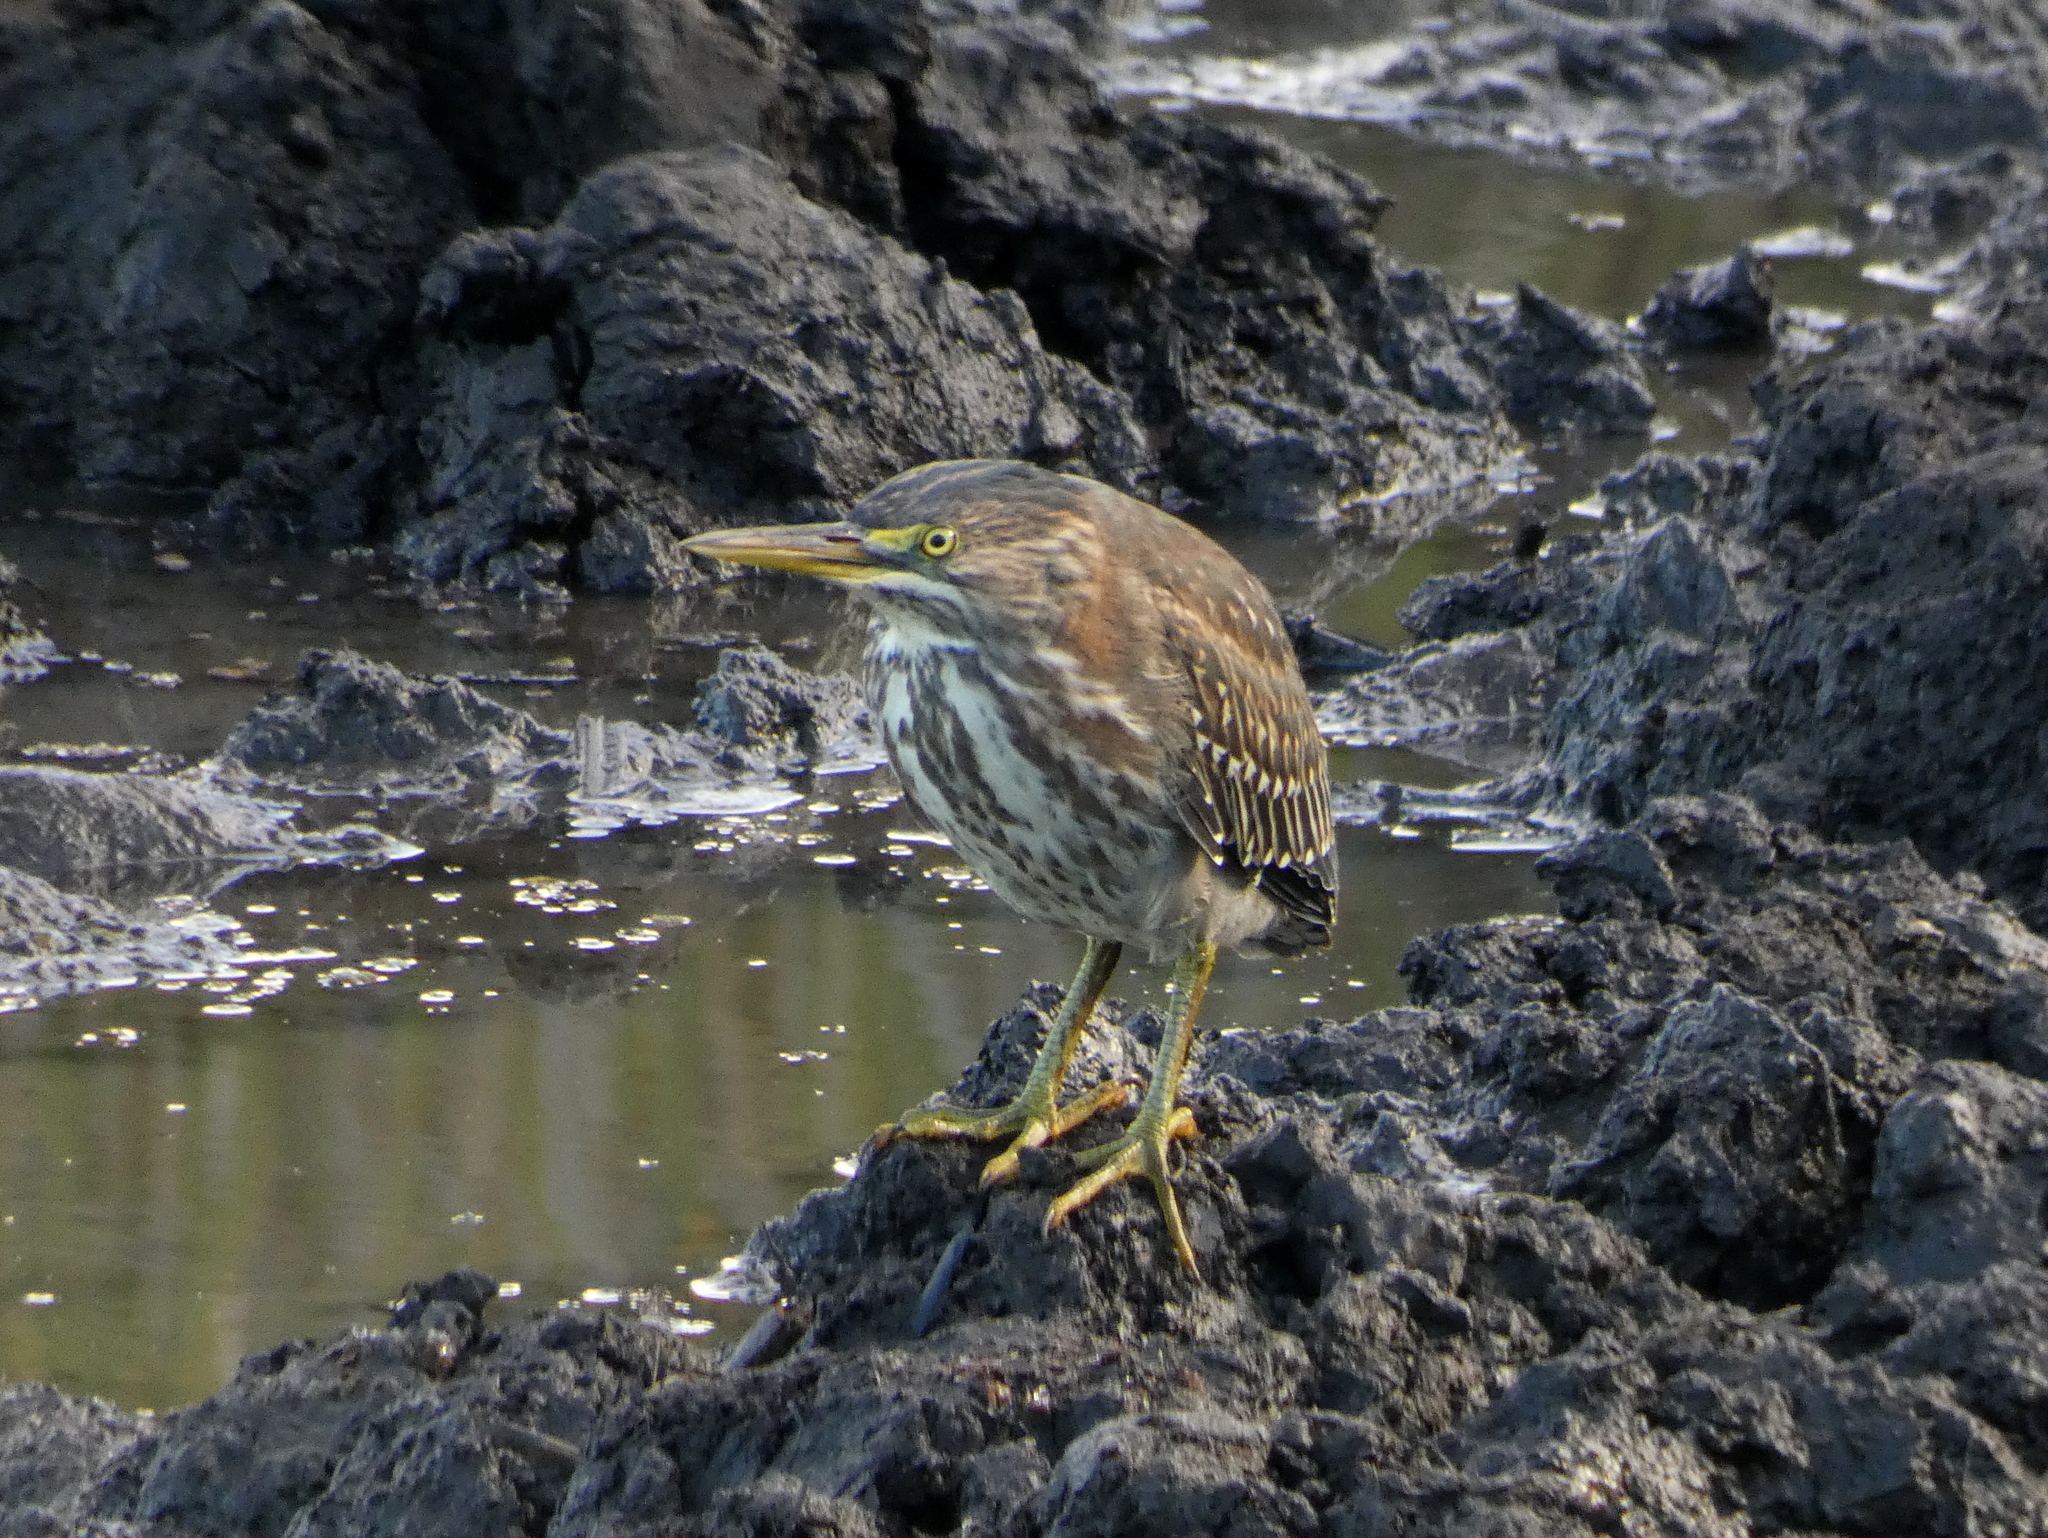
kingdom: Animalia
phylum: Chordata
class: Aves
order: Pelecaniformes
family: Ardeidae
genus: Butorides
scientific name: Butorides virescens
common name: Green heron
